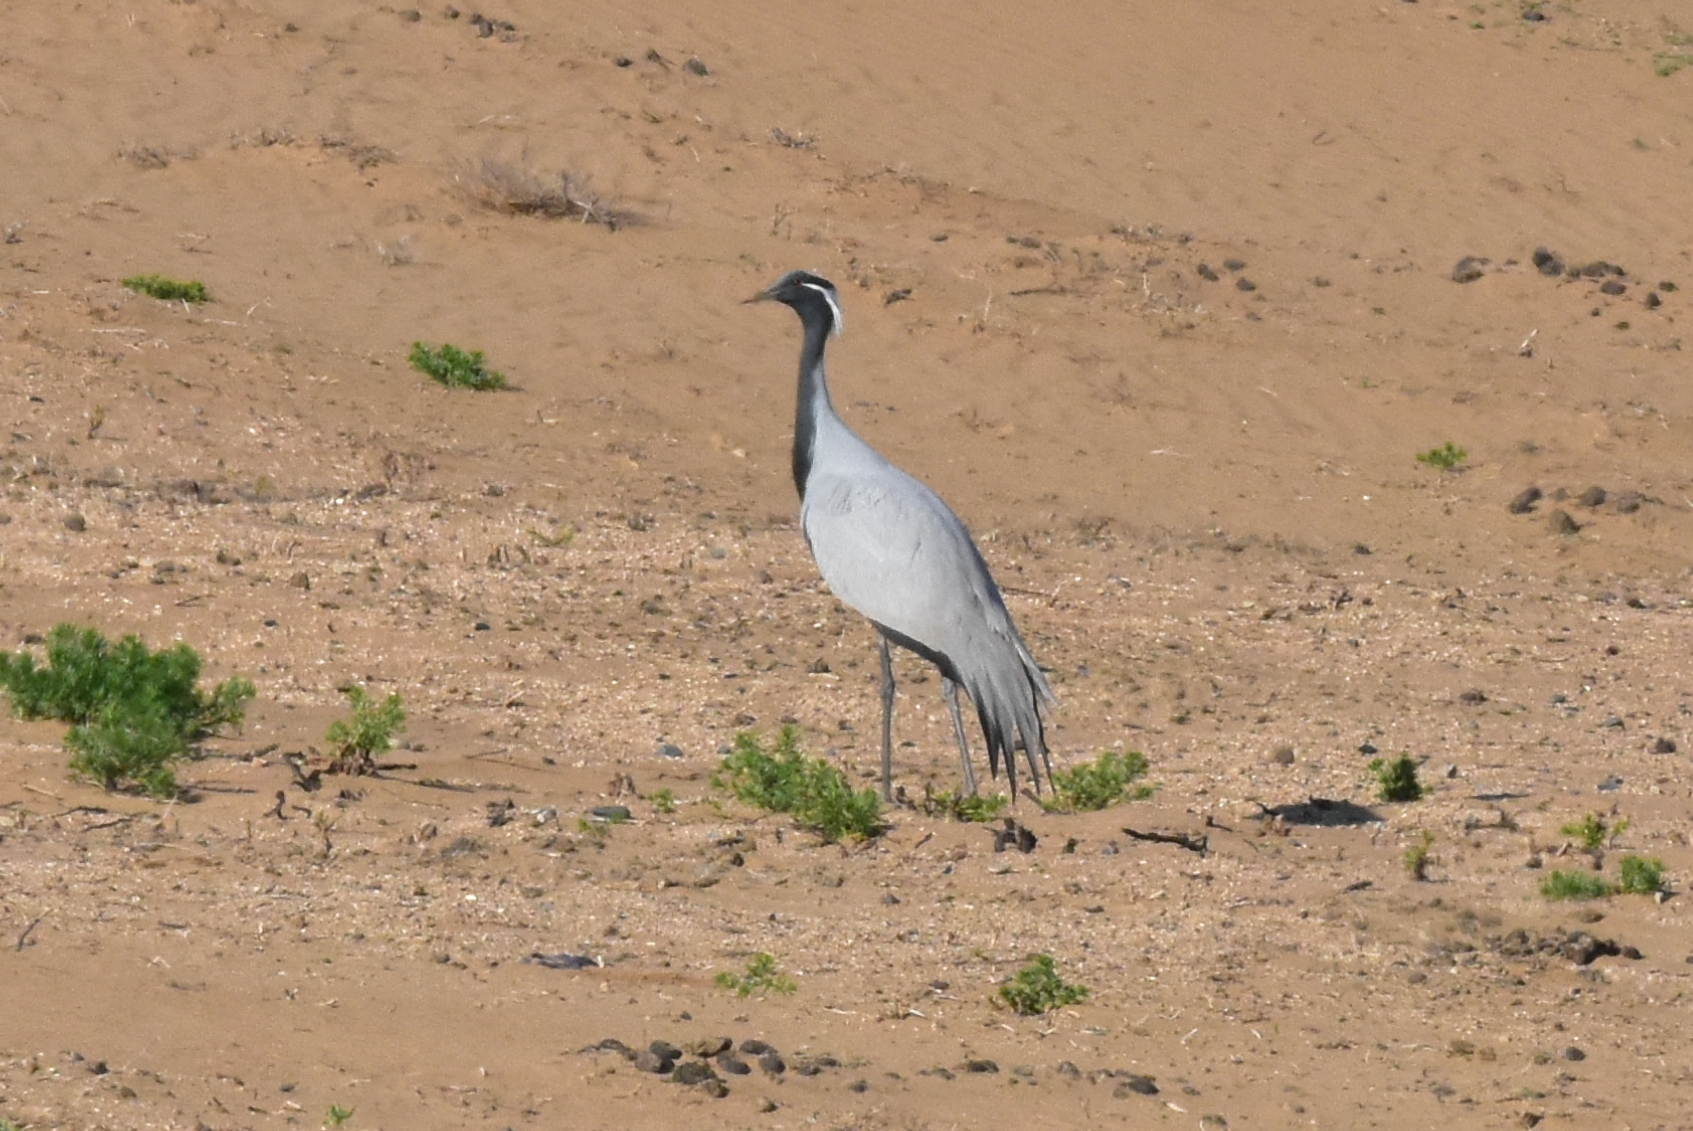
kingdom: Animalia
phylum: Chordata
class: Aves
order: Gruiformes
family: Gruidae
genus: Anthropoides
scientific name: Anthropoides virgo
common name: Demoiselle crane
